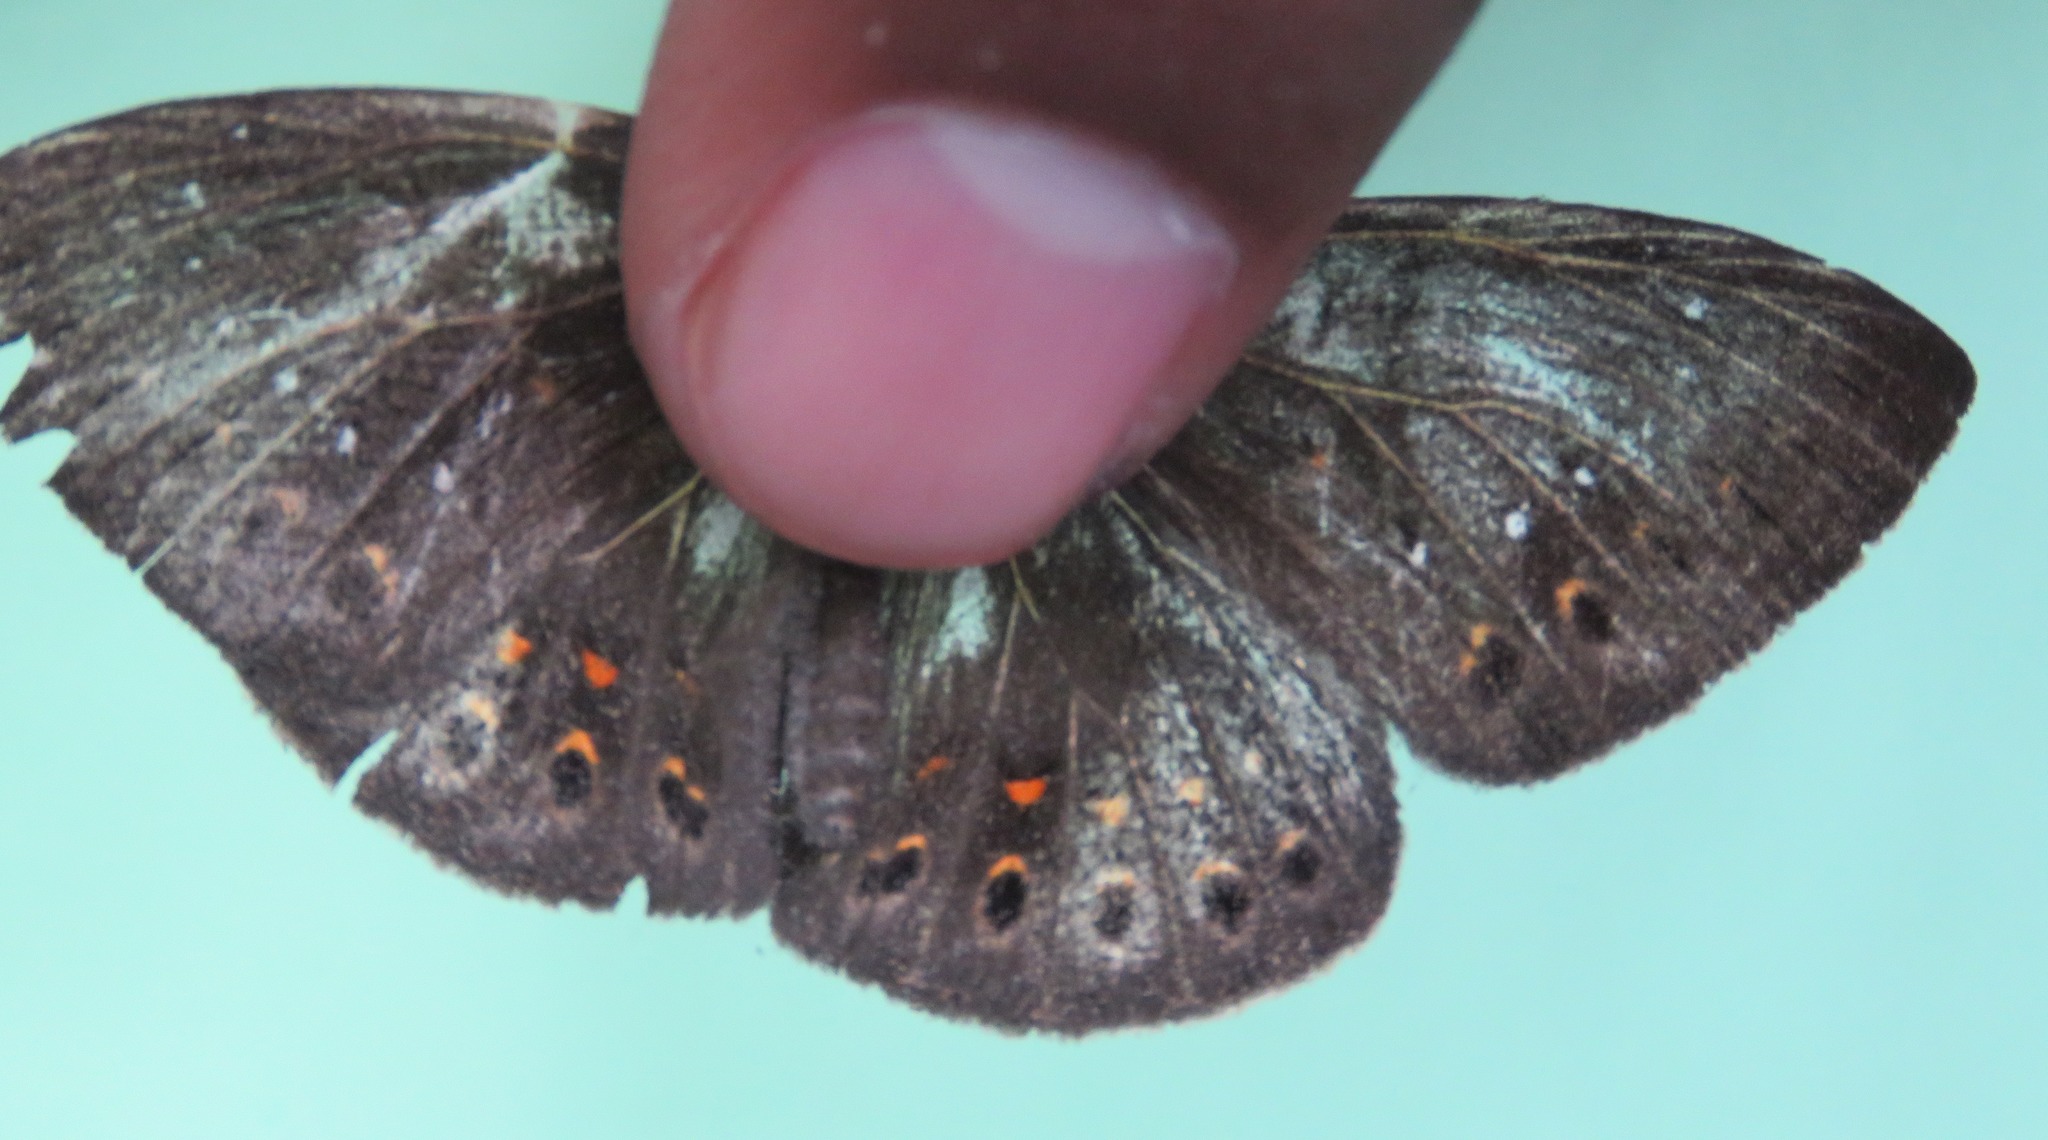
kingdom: Animalia
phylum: Cnidaria
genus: Eurybia
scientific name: Eurybia elvina
